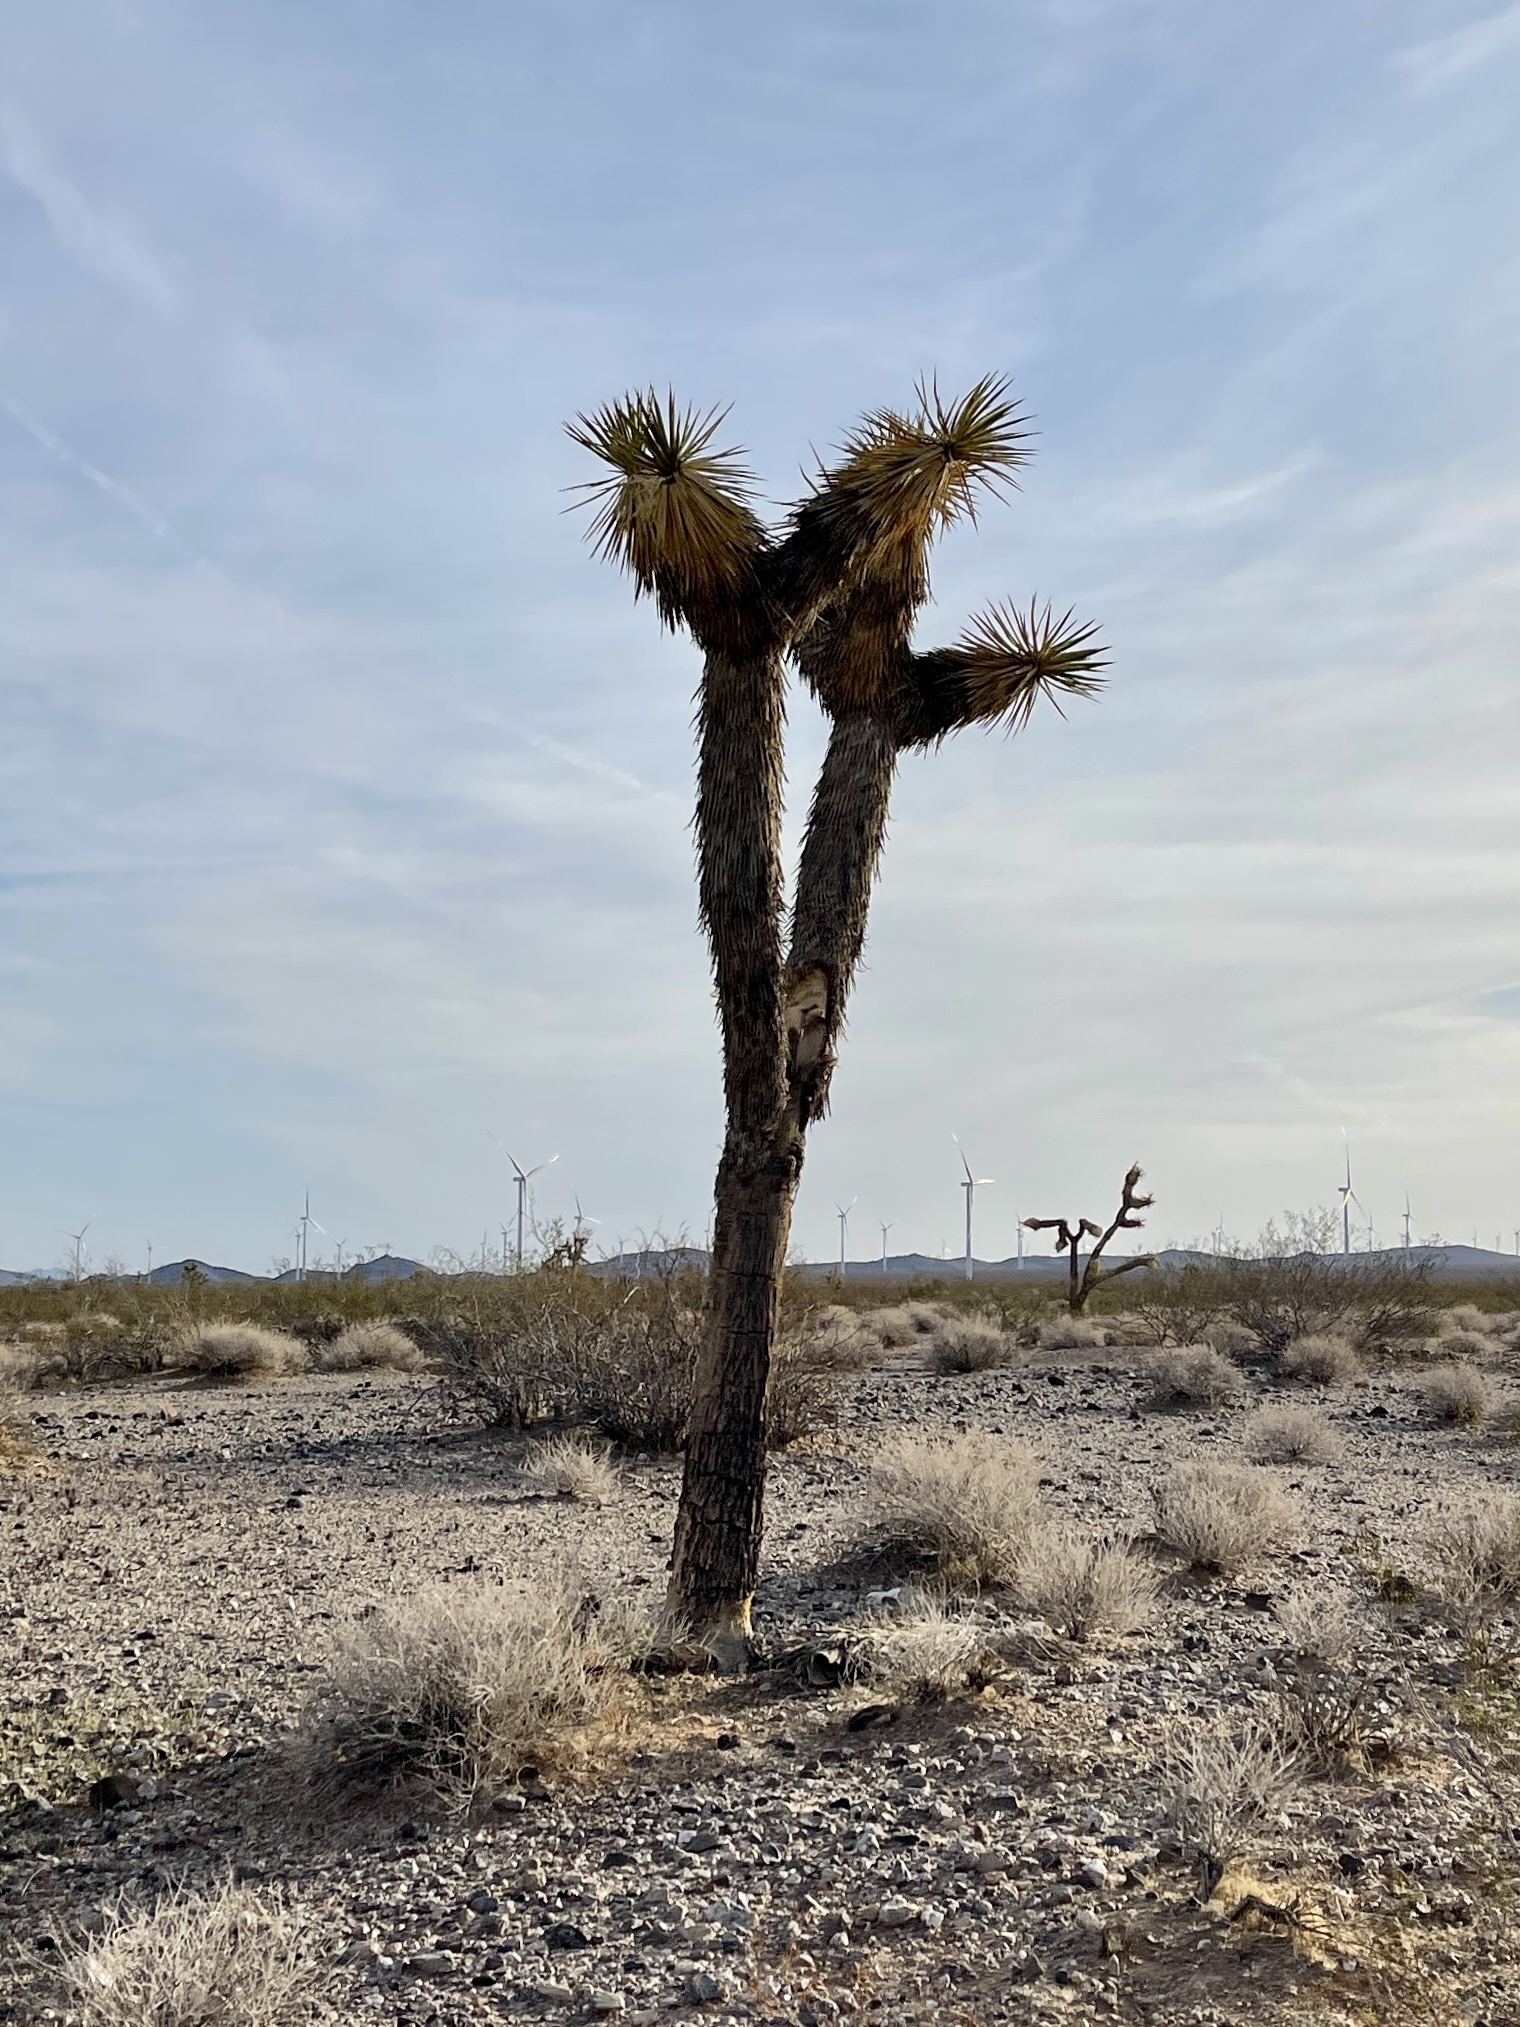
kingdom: Plantae
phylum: Tracheophyta
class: Liliopsida
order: Asparagales
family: Asparagaceae
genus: Yucca
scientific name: Yucca brevifolia
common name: Joshua tree
